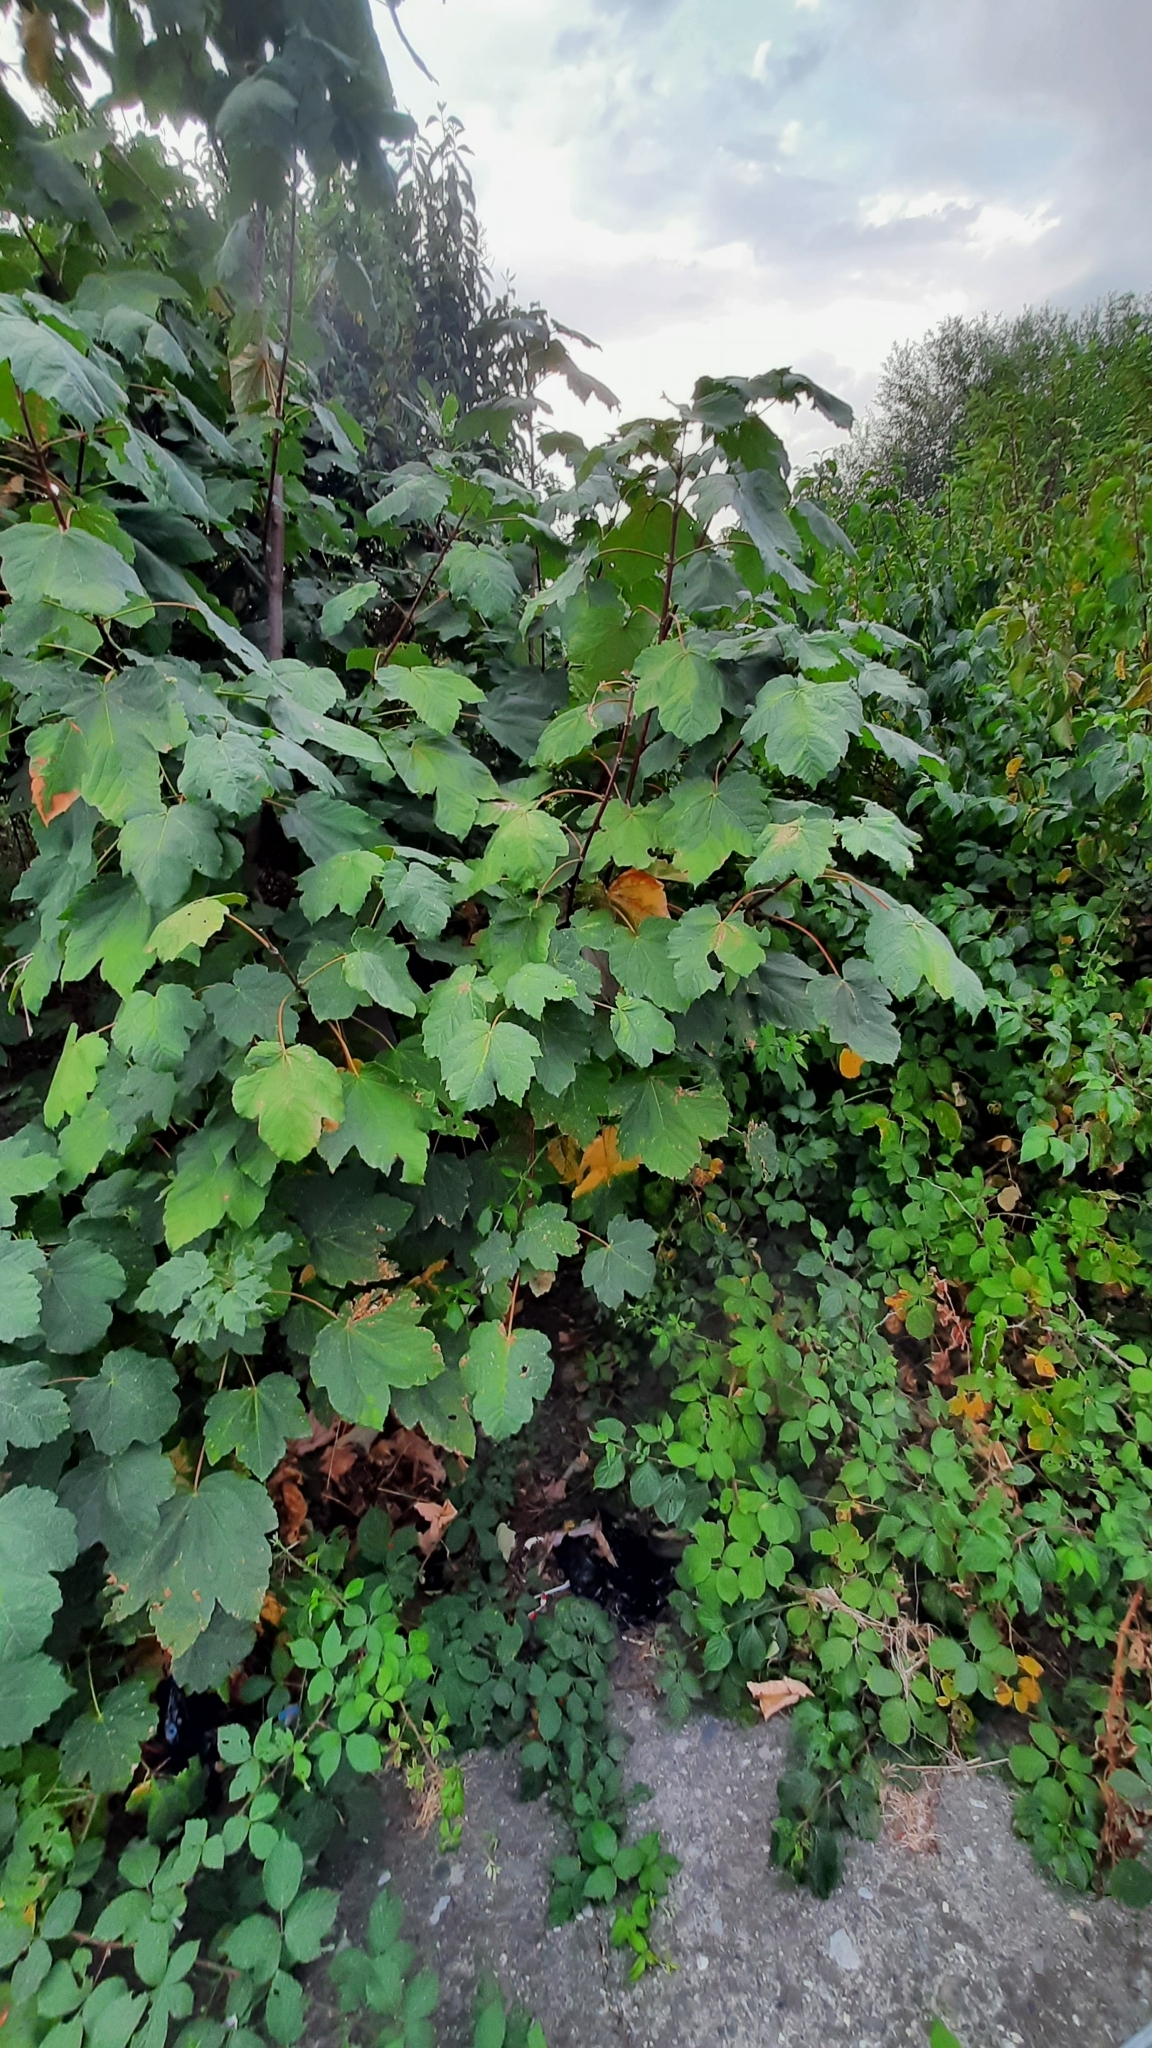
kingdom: Plantae
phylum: Tracheophyta
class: Magnoliopsida
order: Sapindales
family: Sapindaceae
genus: Acer
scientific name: Acer pseudoplatanus
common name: Sycamore
